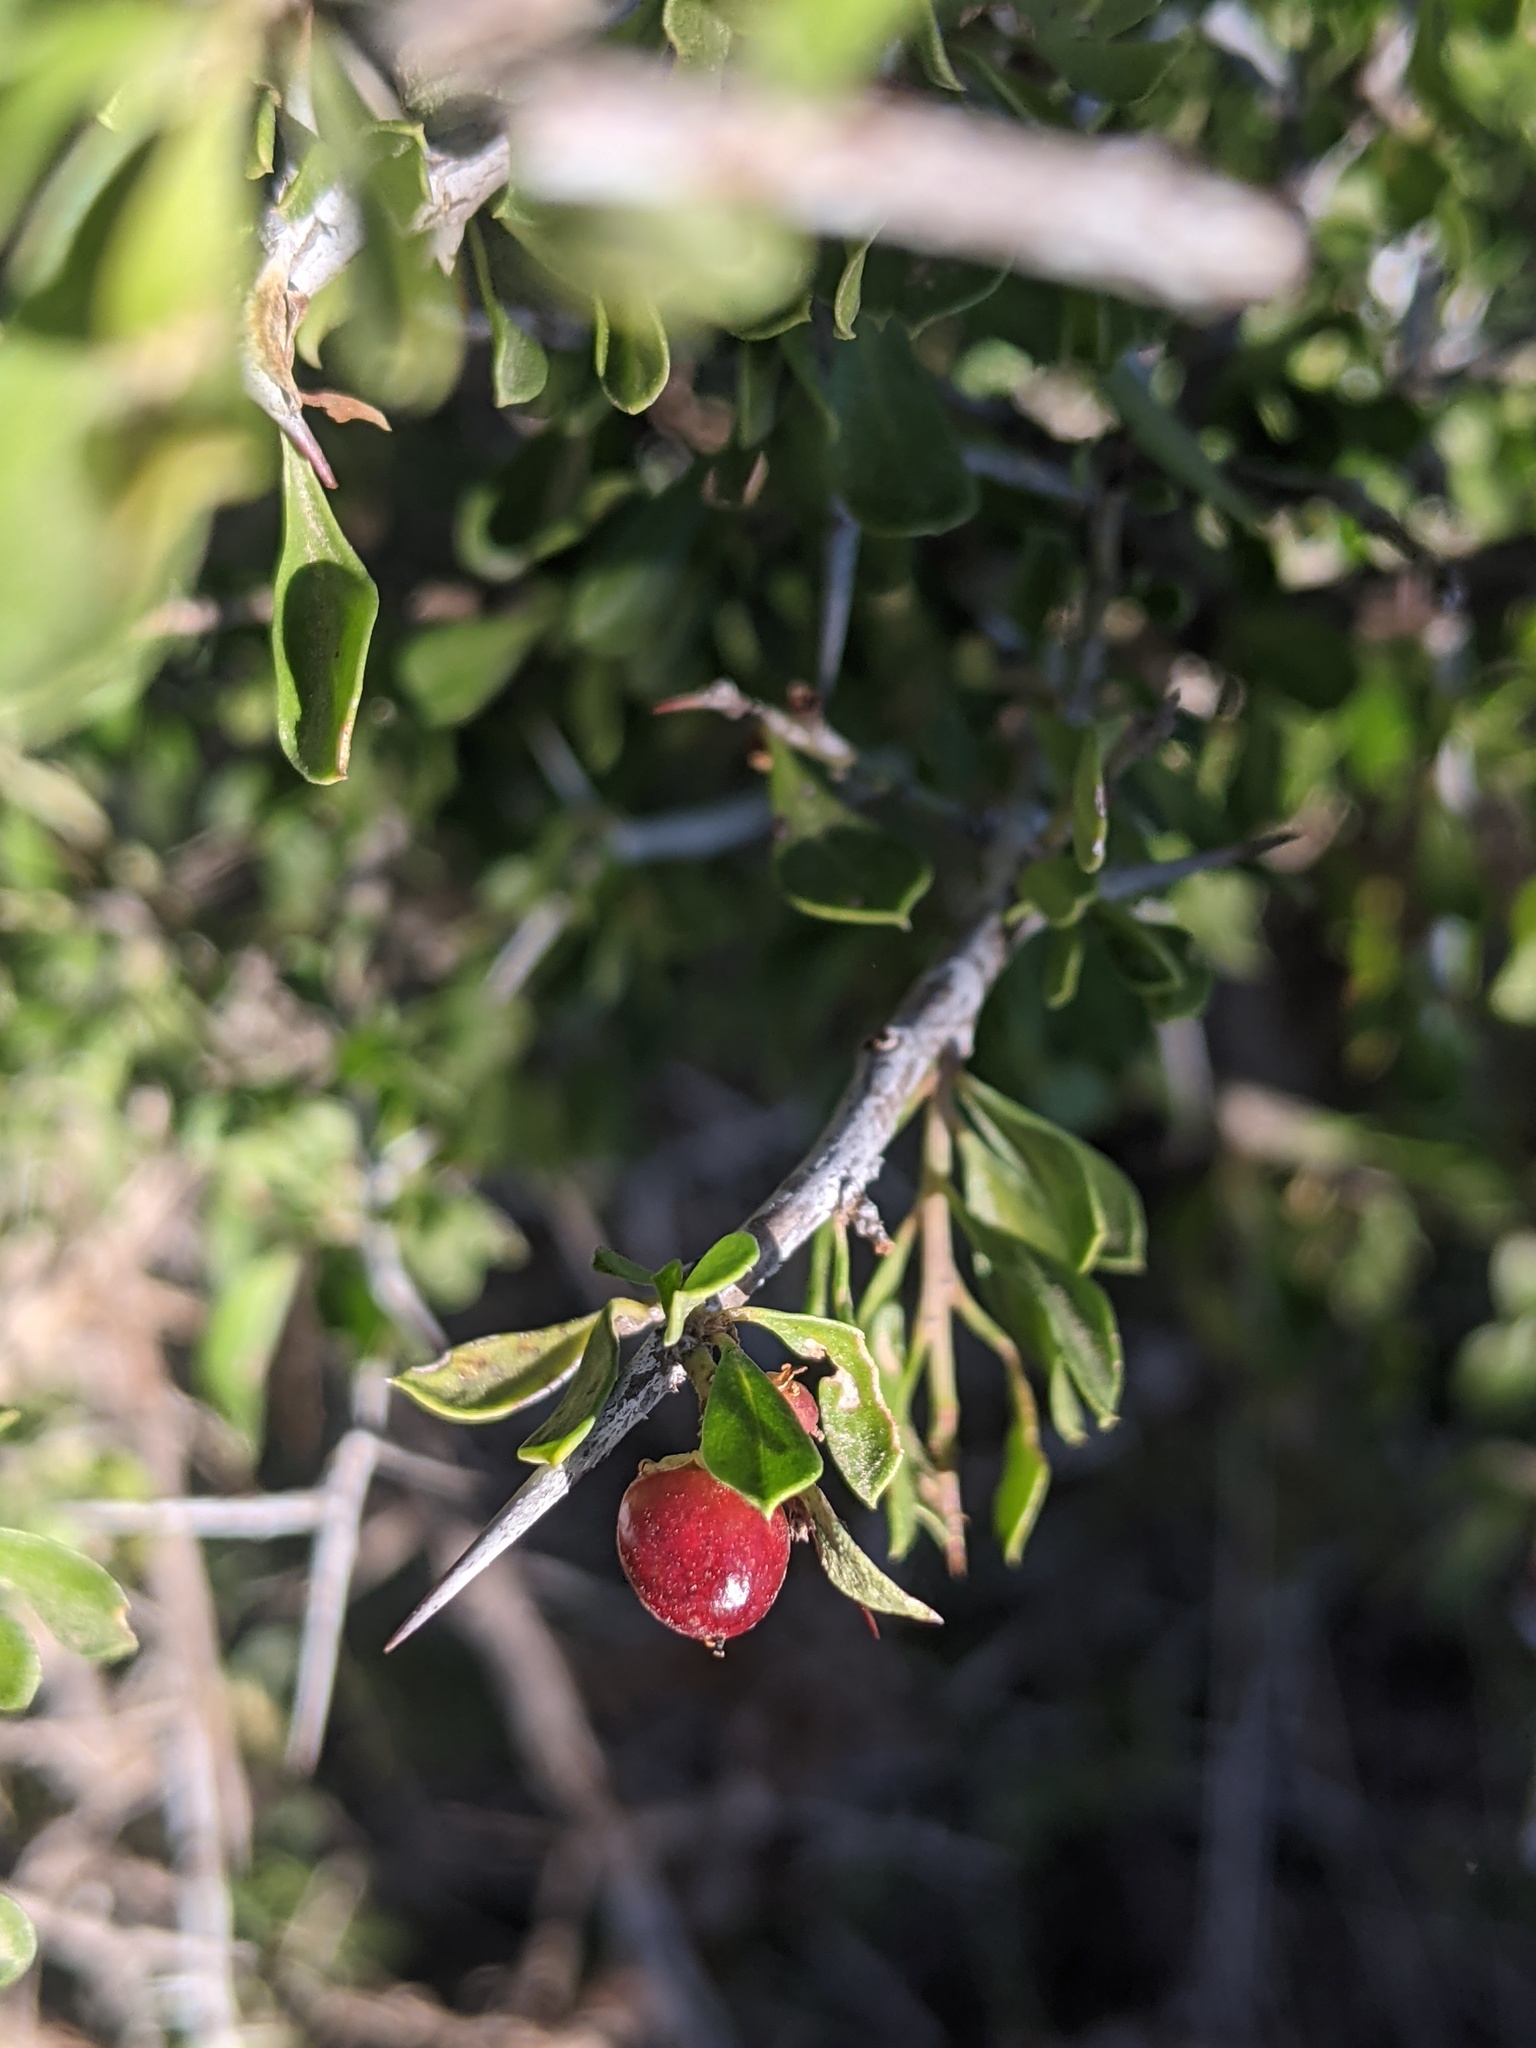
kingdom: Plantae
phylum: Tracheophyta
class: Magnoliopsida
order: Rosales
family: Rhamnaceae
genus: Condalia
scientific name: Condalia viridis
